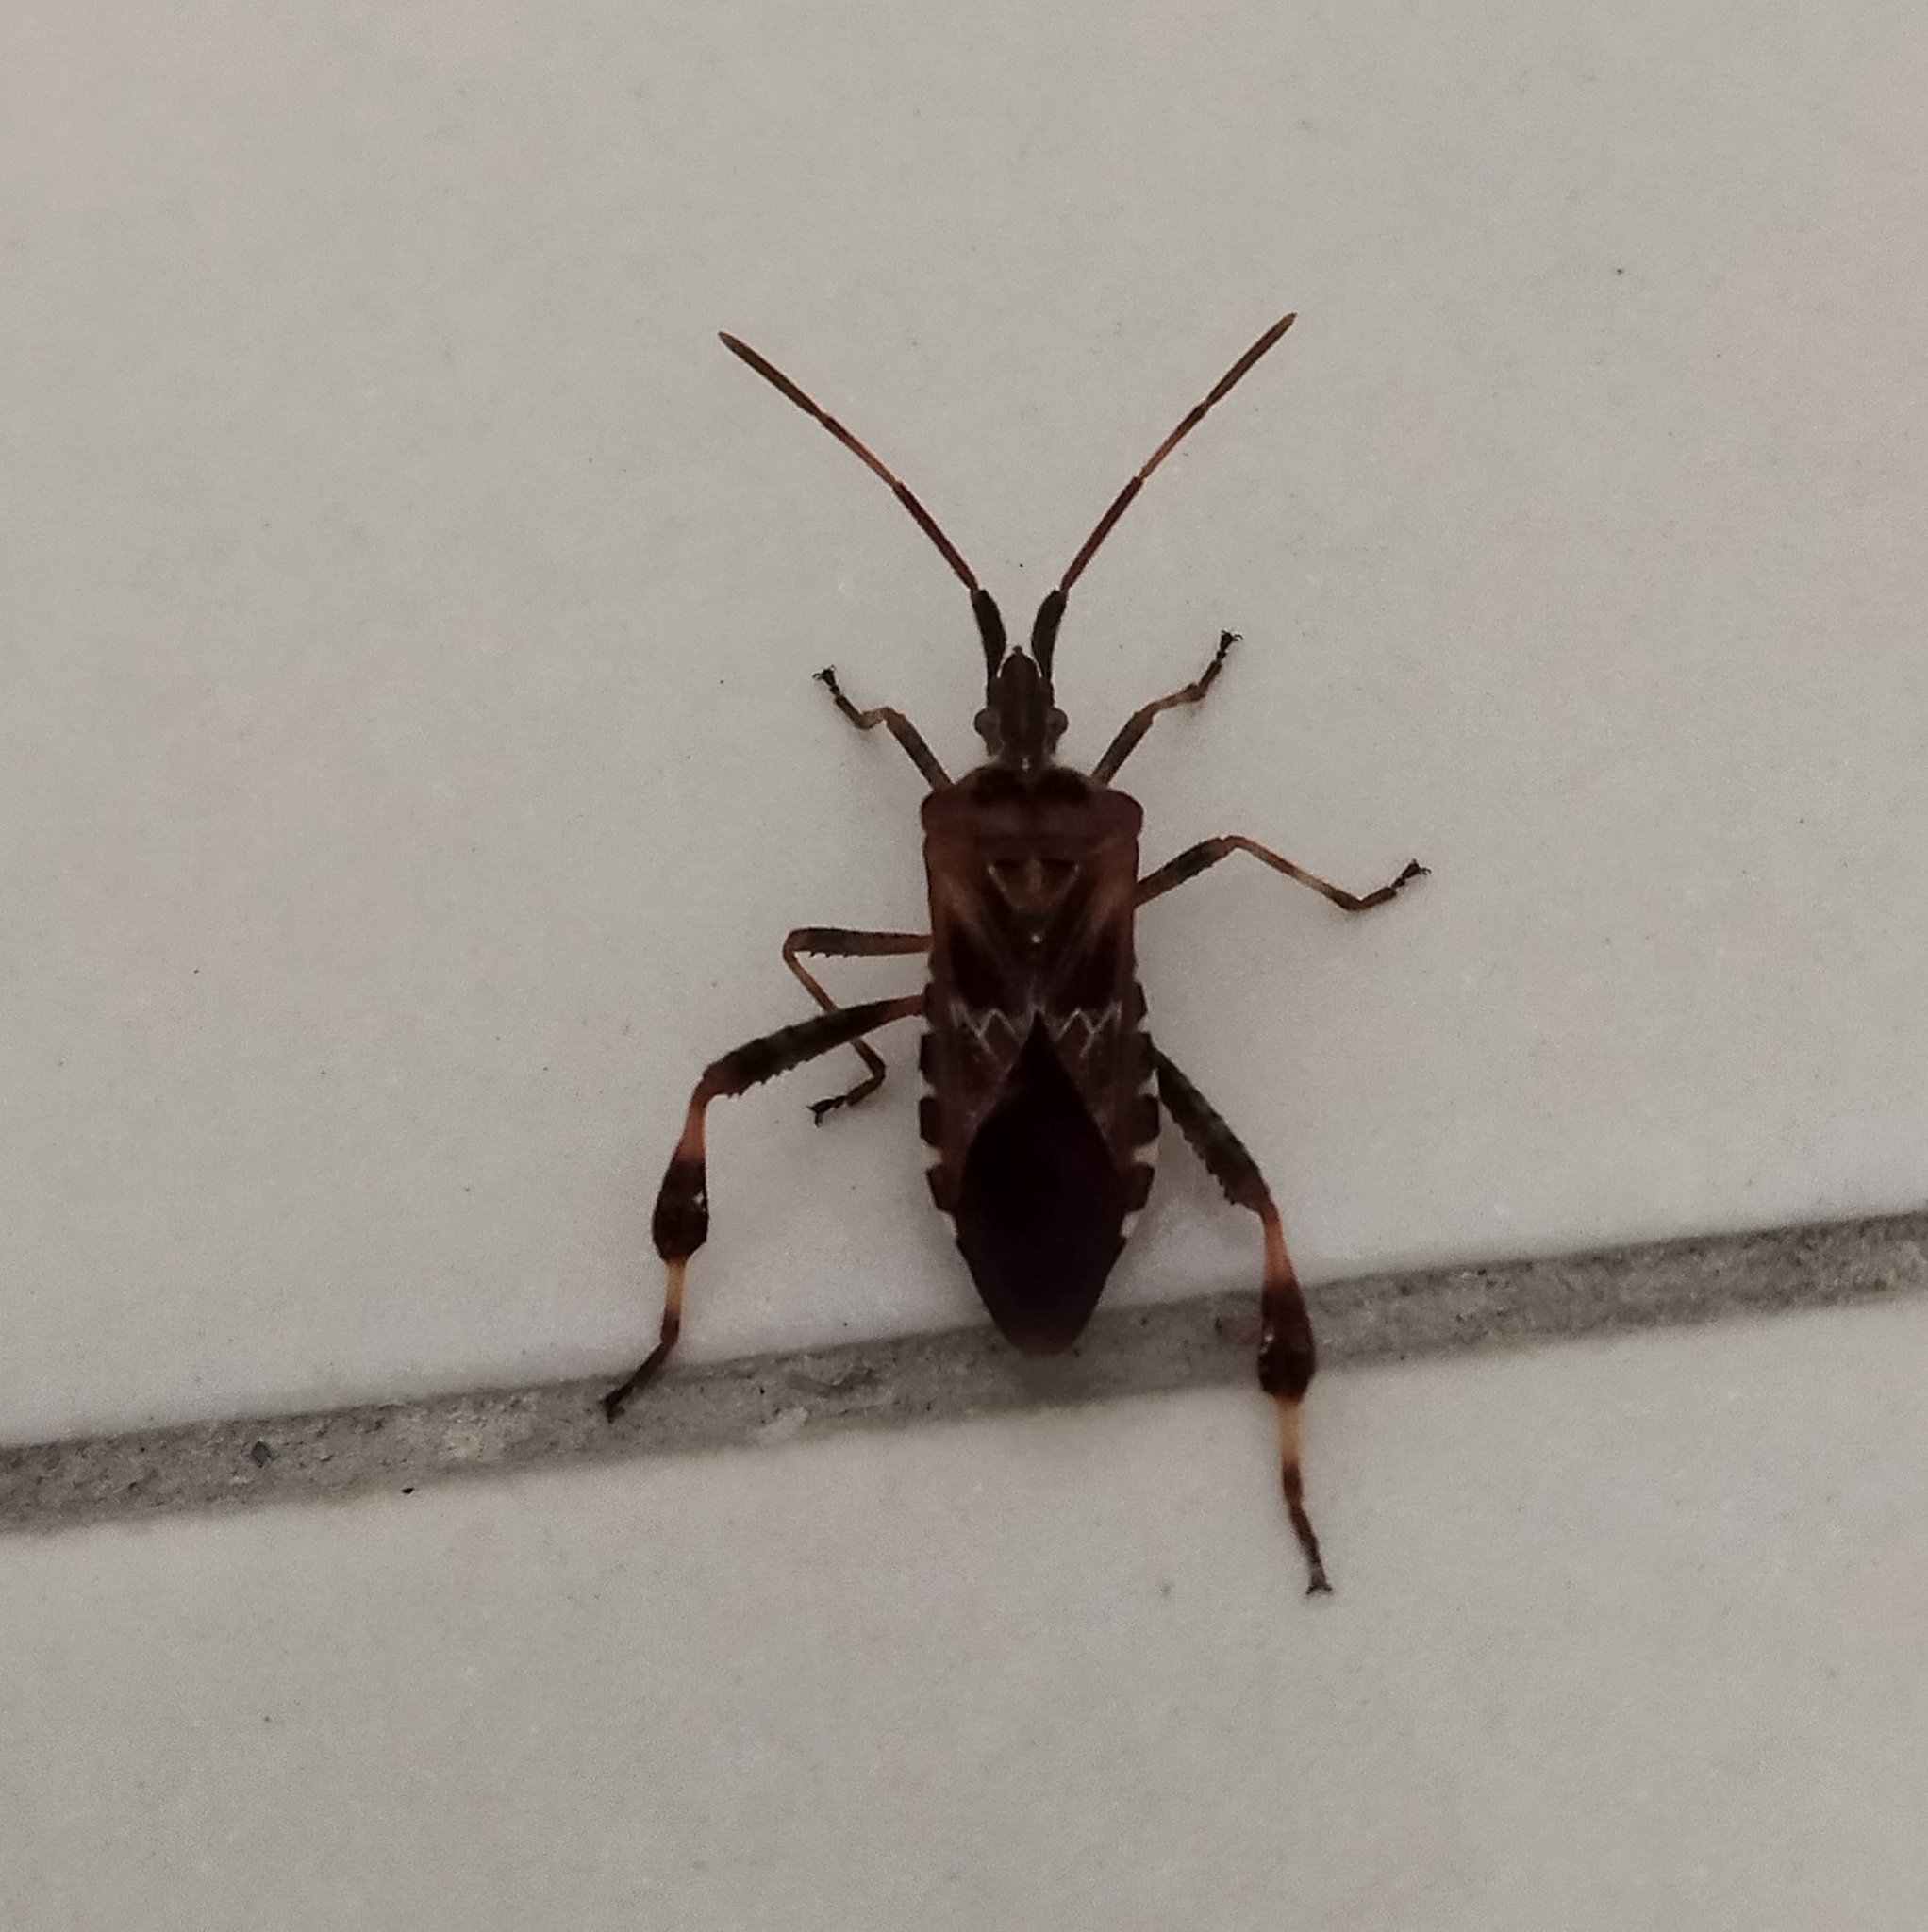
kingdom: Animalia
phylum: Arthropoda
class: Insecta
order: Hemiptera
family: Coreidae
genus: Leptoglossus
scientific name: Leptoglossus occidentalis
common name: Western conifer-seed bug
